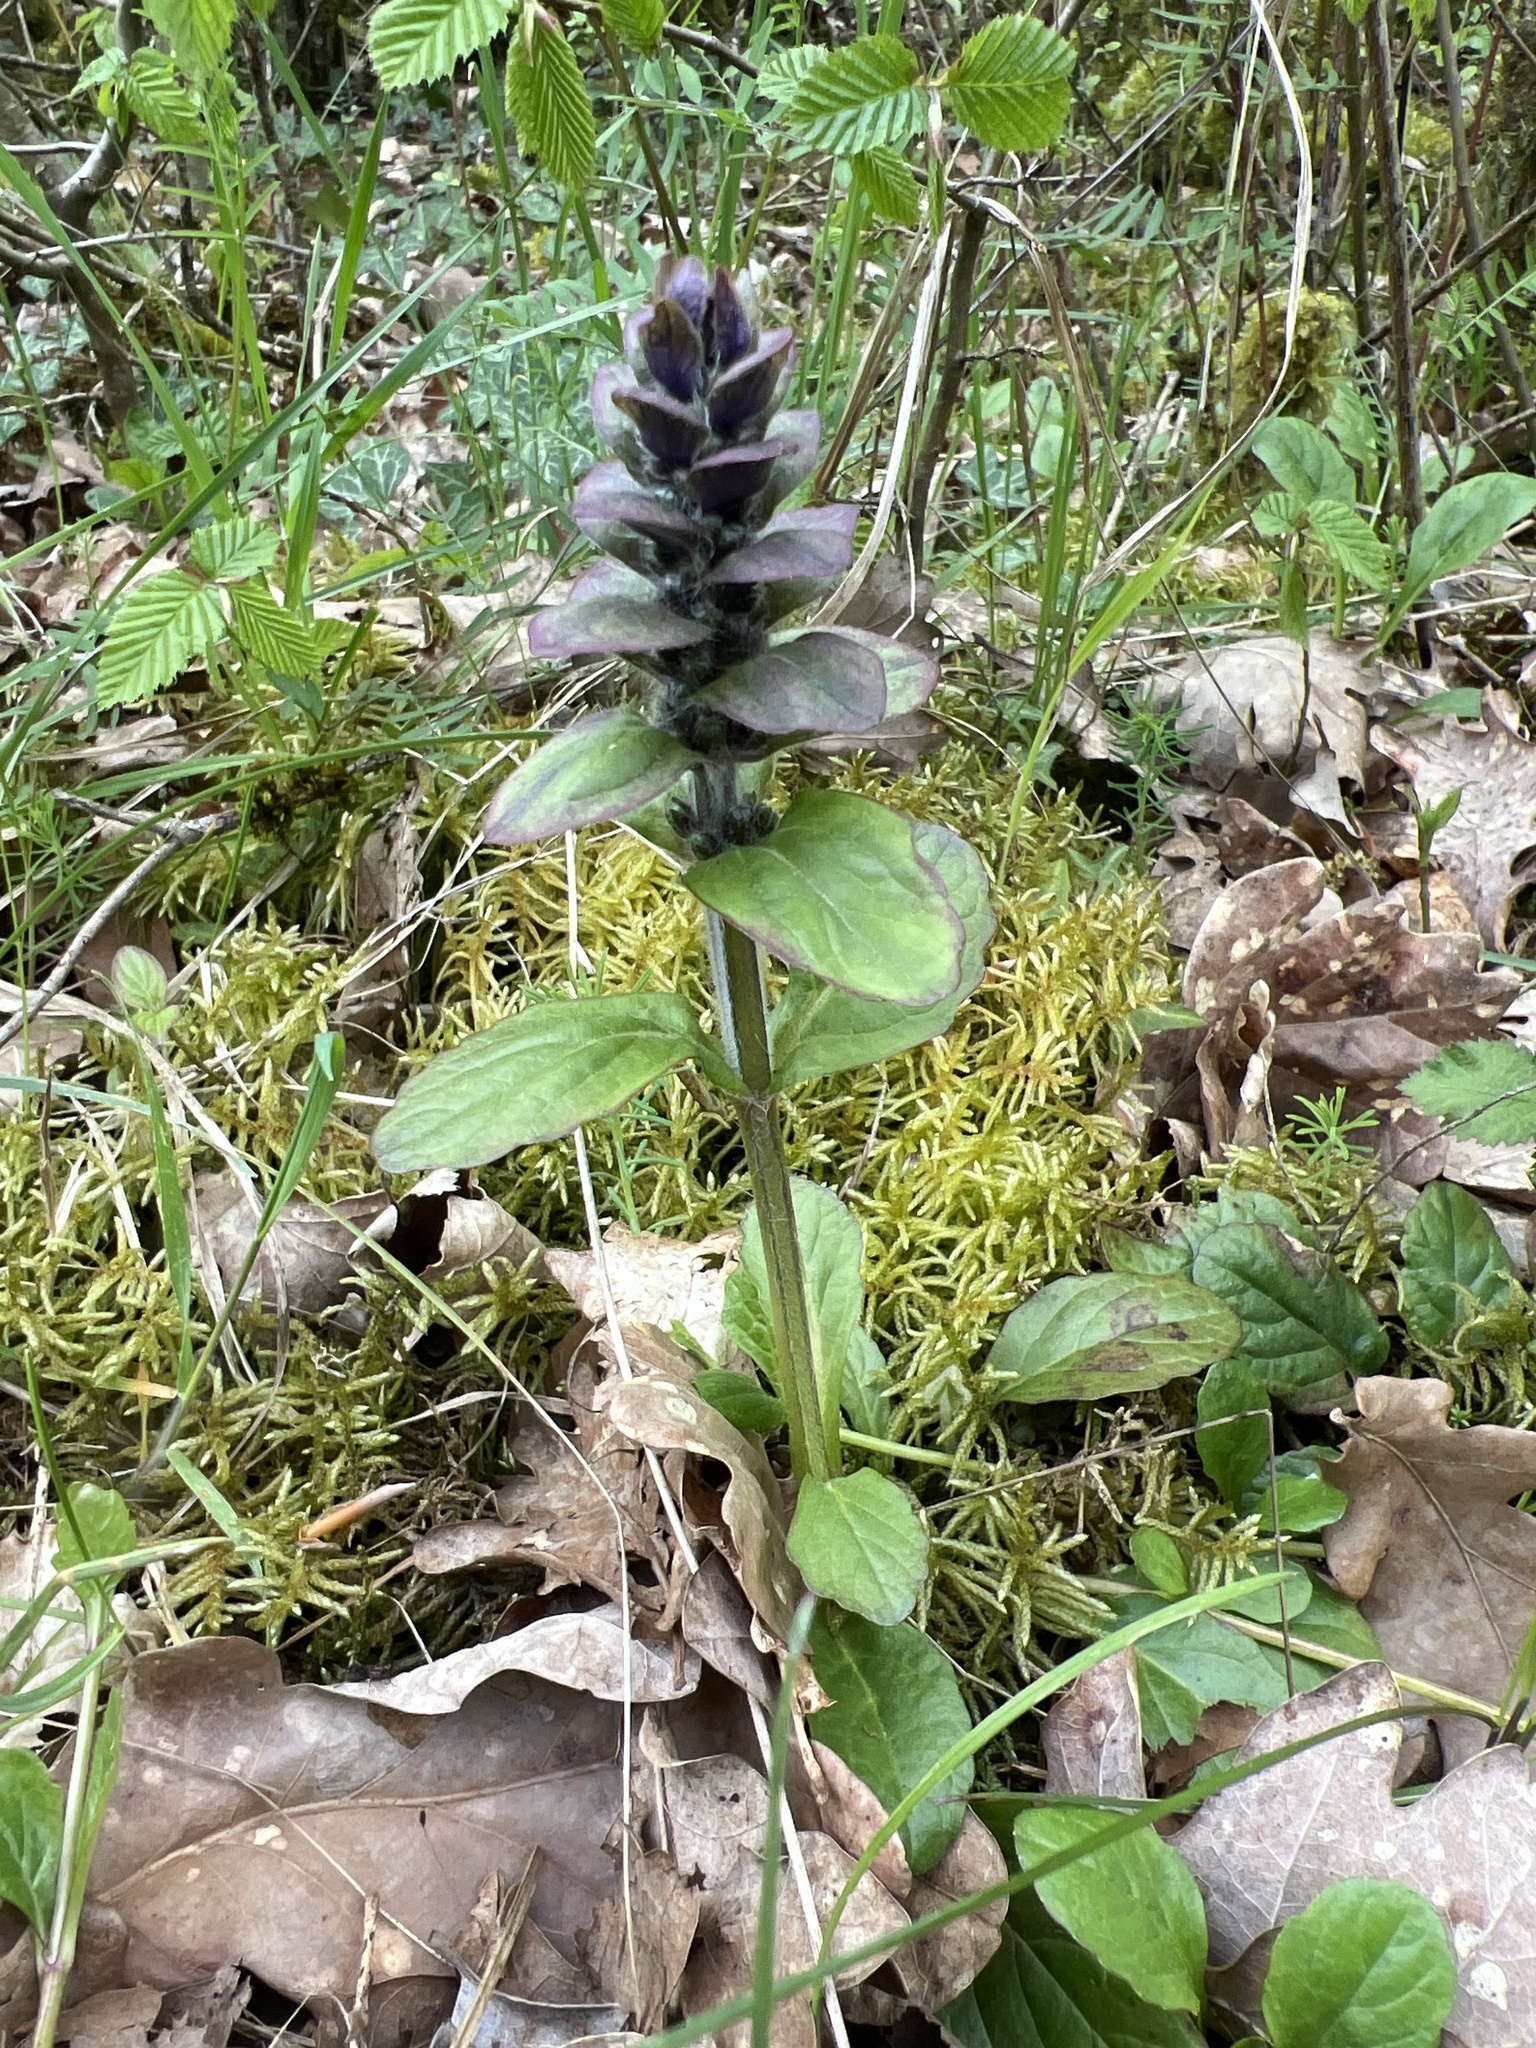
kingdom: Plantae
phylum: Tracheophyta
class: Magnoliopsida
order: Lamiales
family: Lamiaceae
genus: Ajuga
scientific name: Ajuga reptans
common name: Bugle
